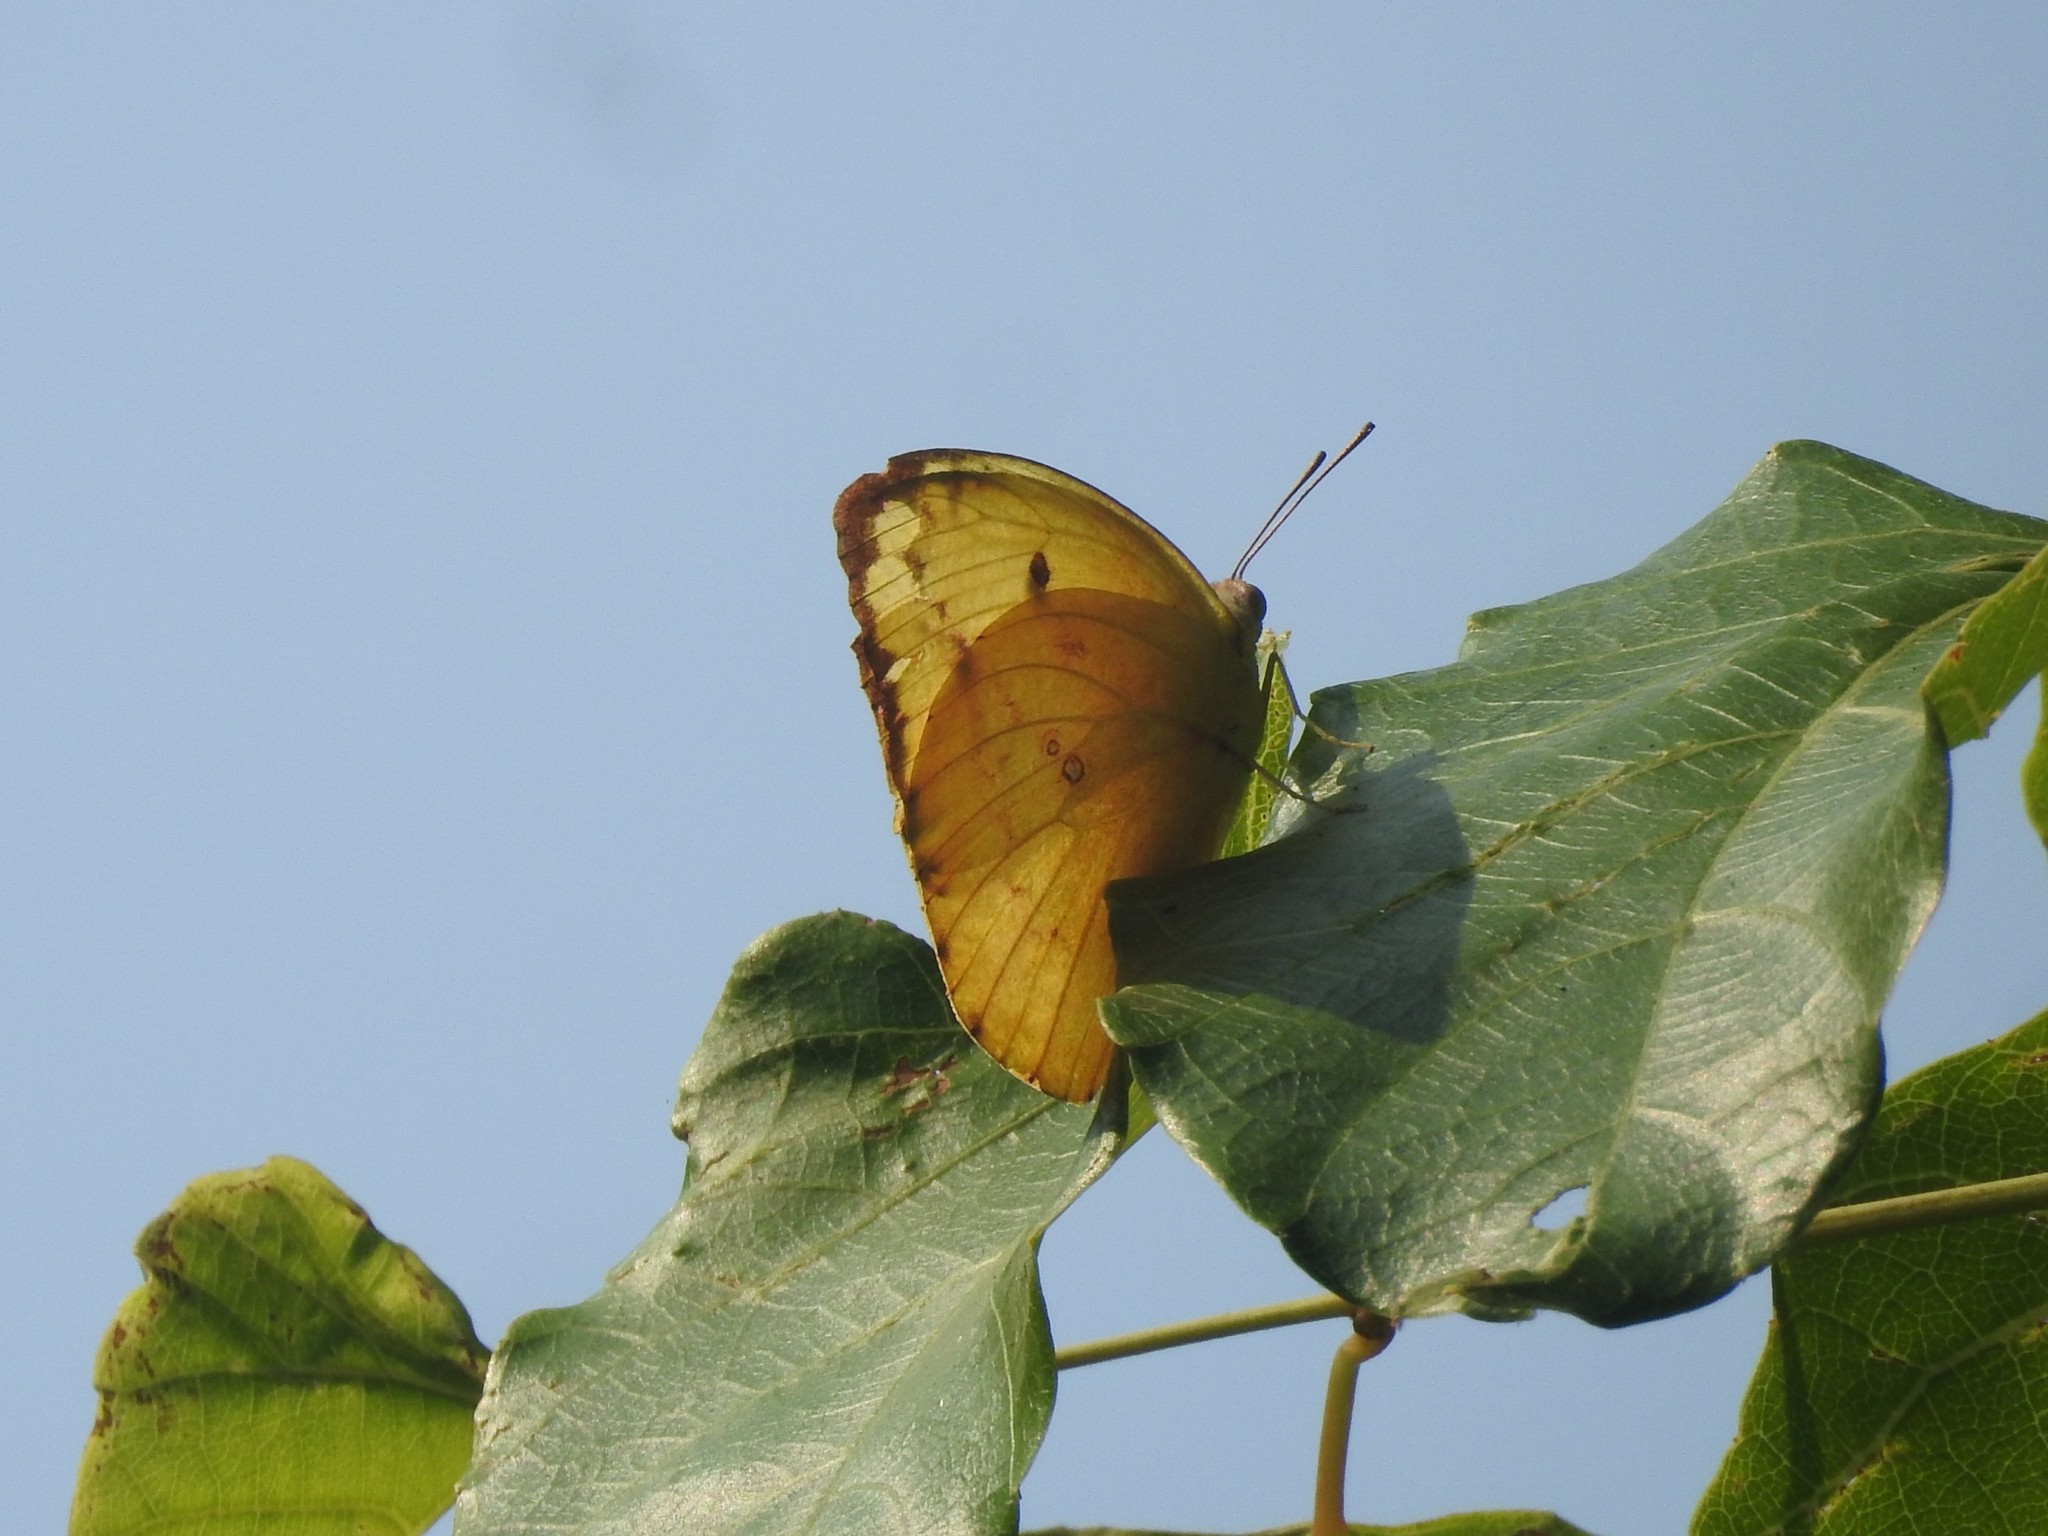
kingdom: Animalia
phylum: Arthropoda
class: Insecta
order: Lepidoptera
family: Pieridae
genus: Catopsilia
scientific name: Catopsilia pomona
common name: Common emigrant
